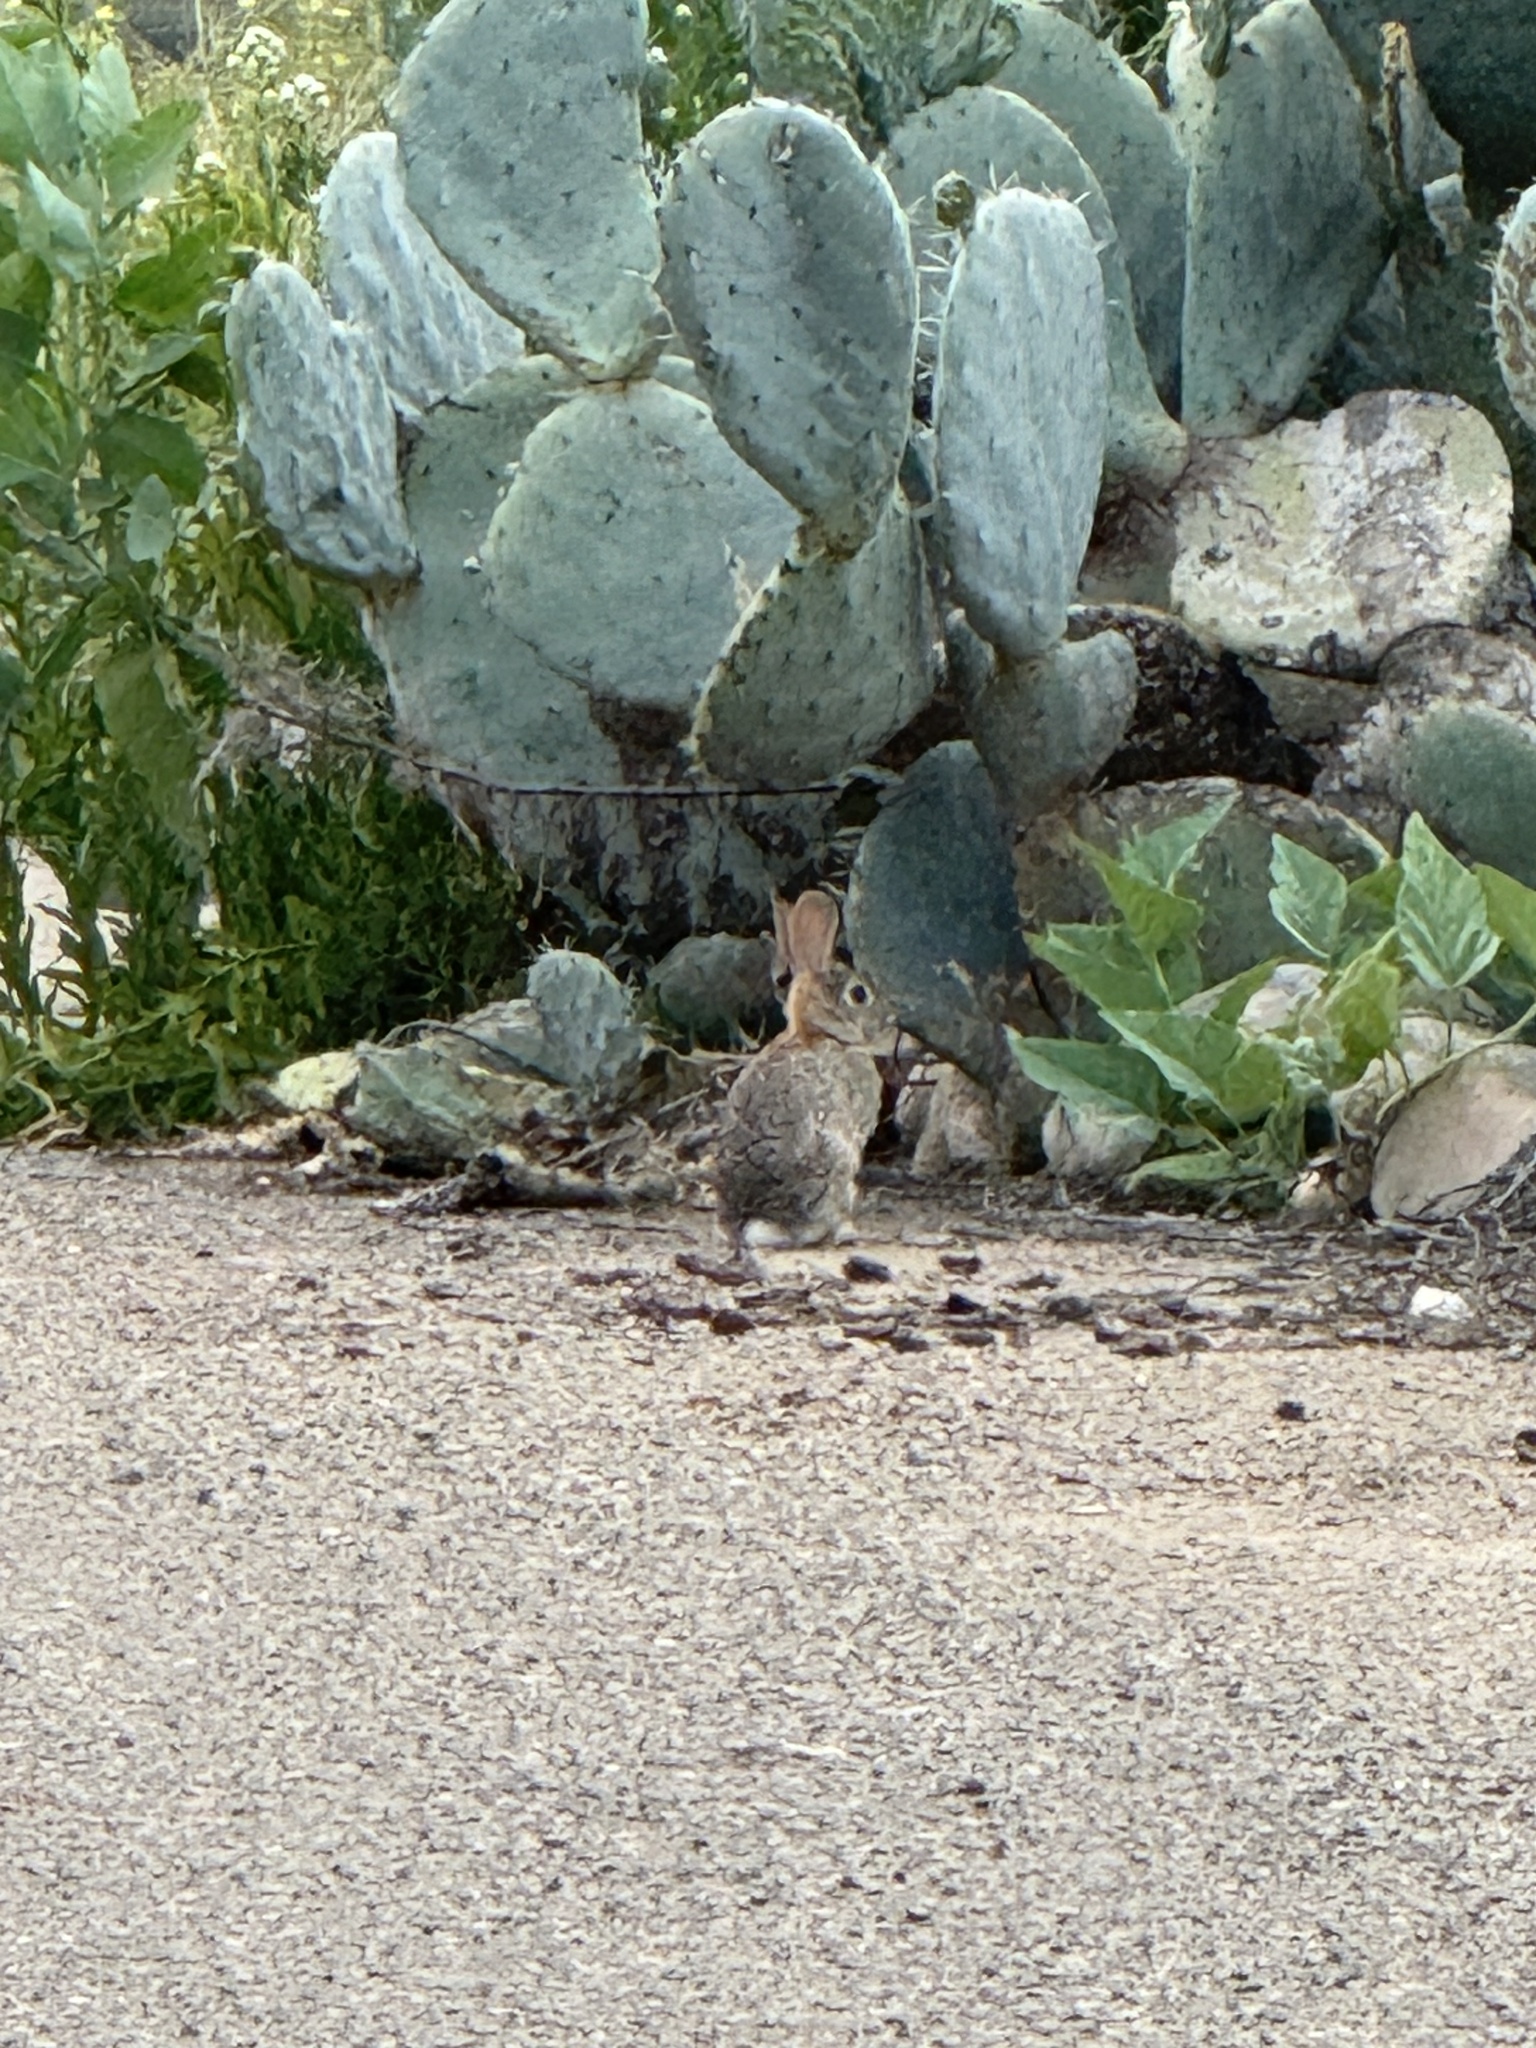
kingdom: Animalia
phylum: Chordata
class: Mammalia
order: Lagomorpha
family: Leporidae
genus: Sylvilagus
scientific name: Sylvilagus audubonii
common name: Desert cottontail
